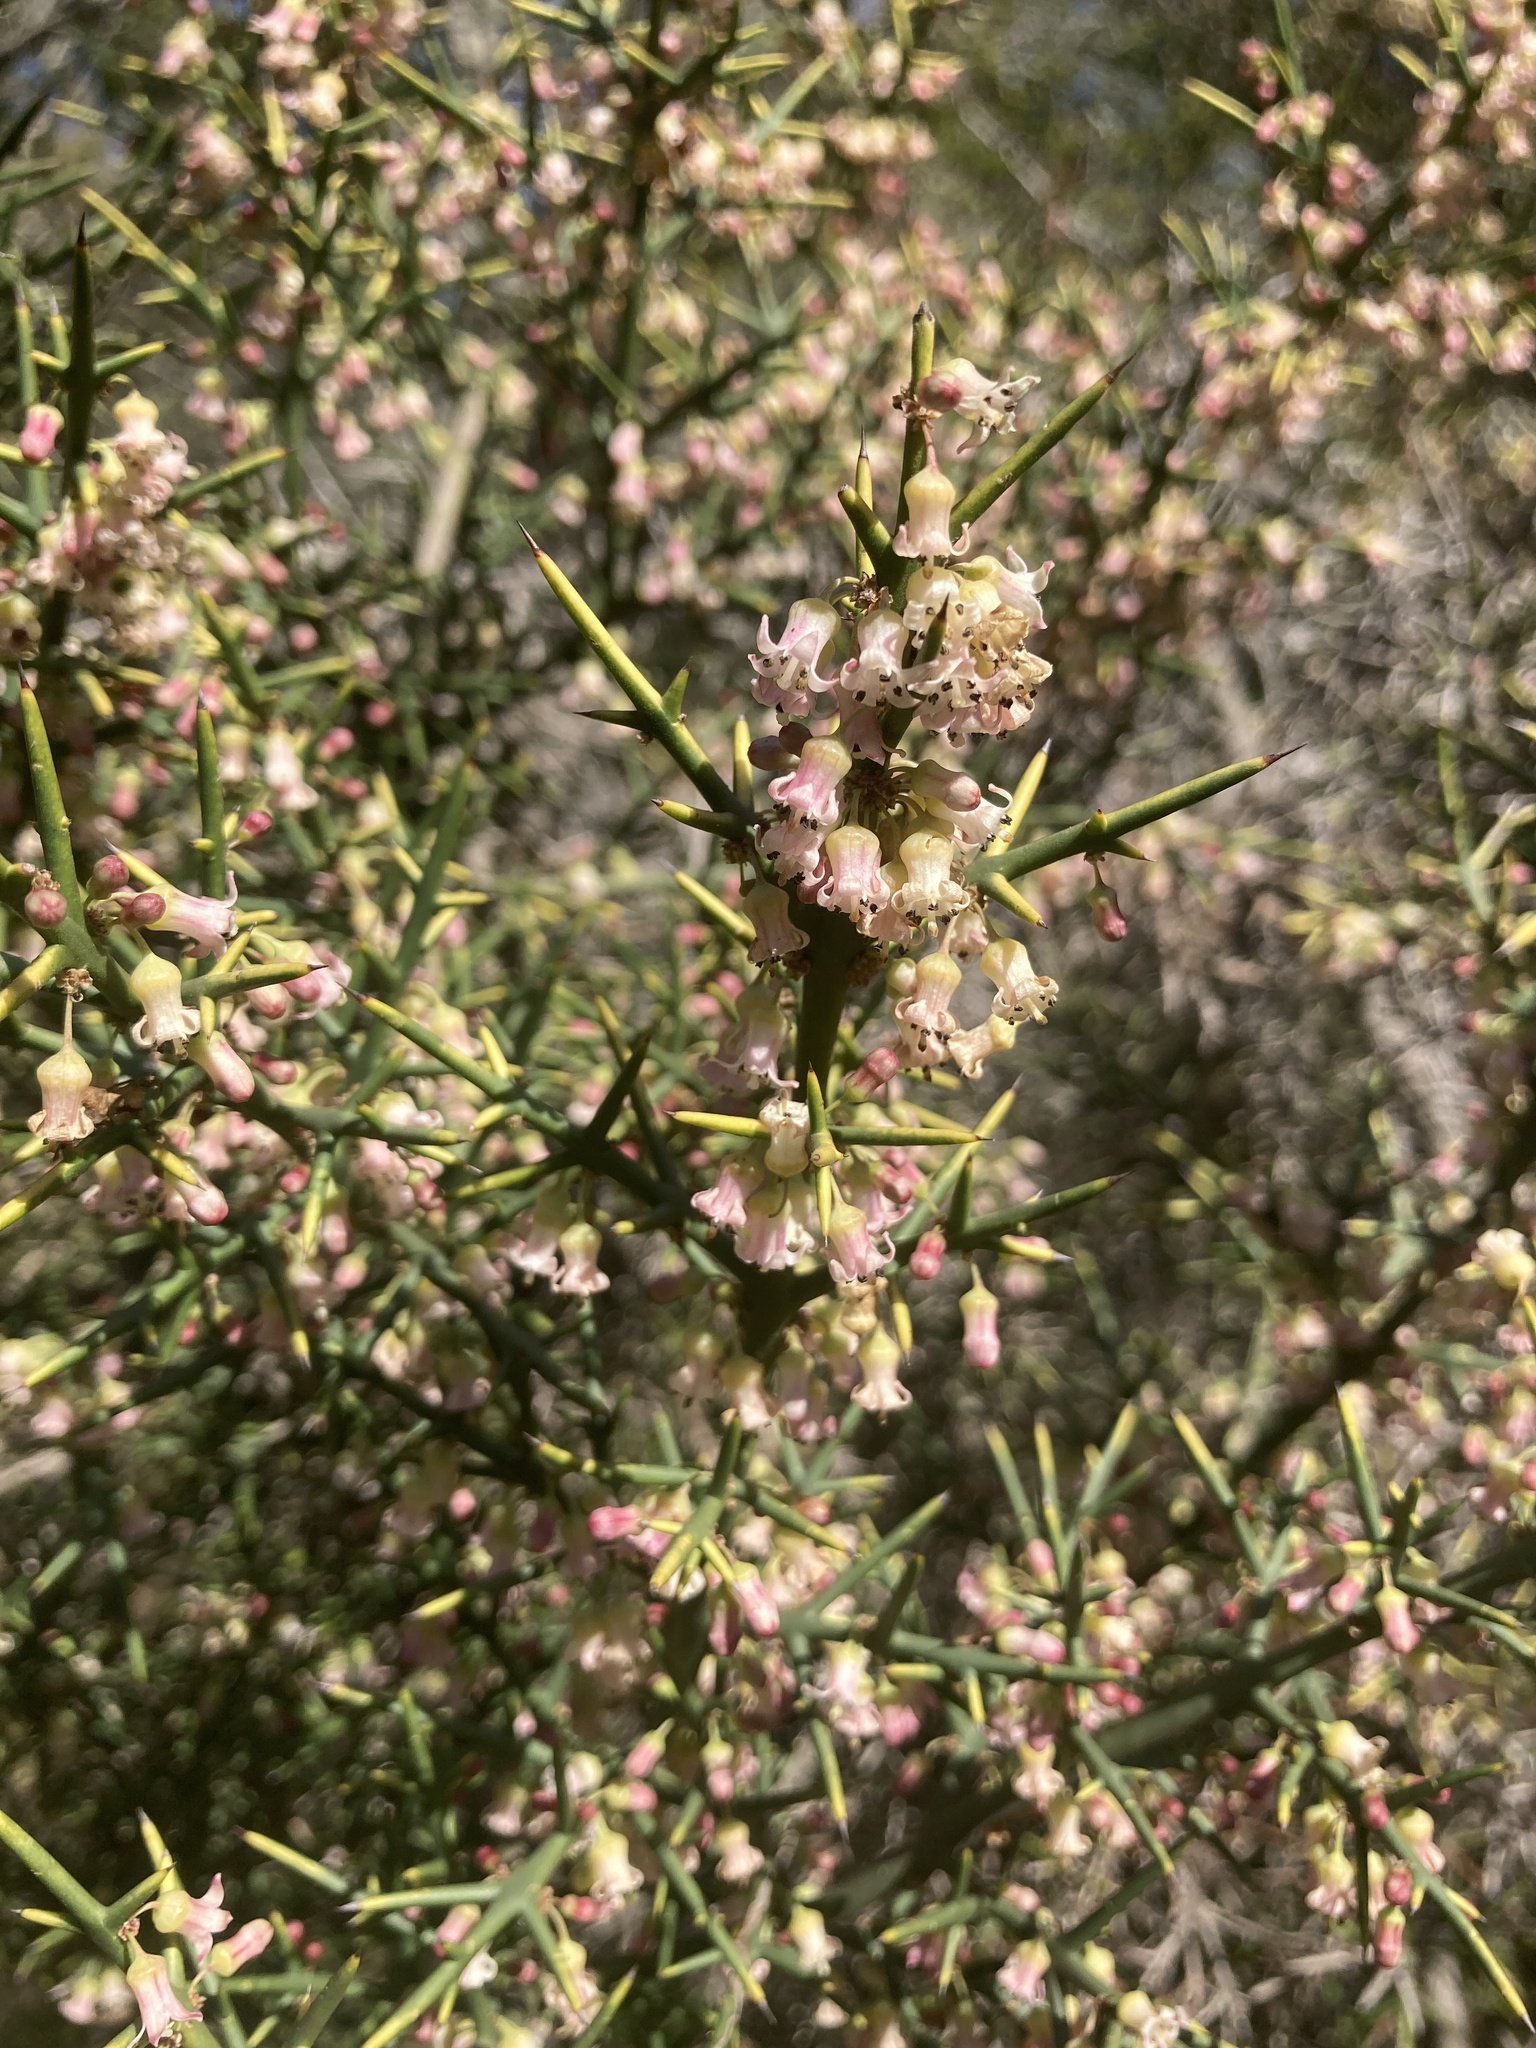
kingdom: Plantae
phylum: Tracheophyta
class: Magnoliopsida
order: Rosales
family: Rhamnaceae
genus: Colletia
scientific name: Colletia spinosissima
